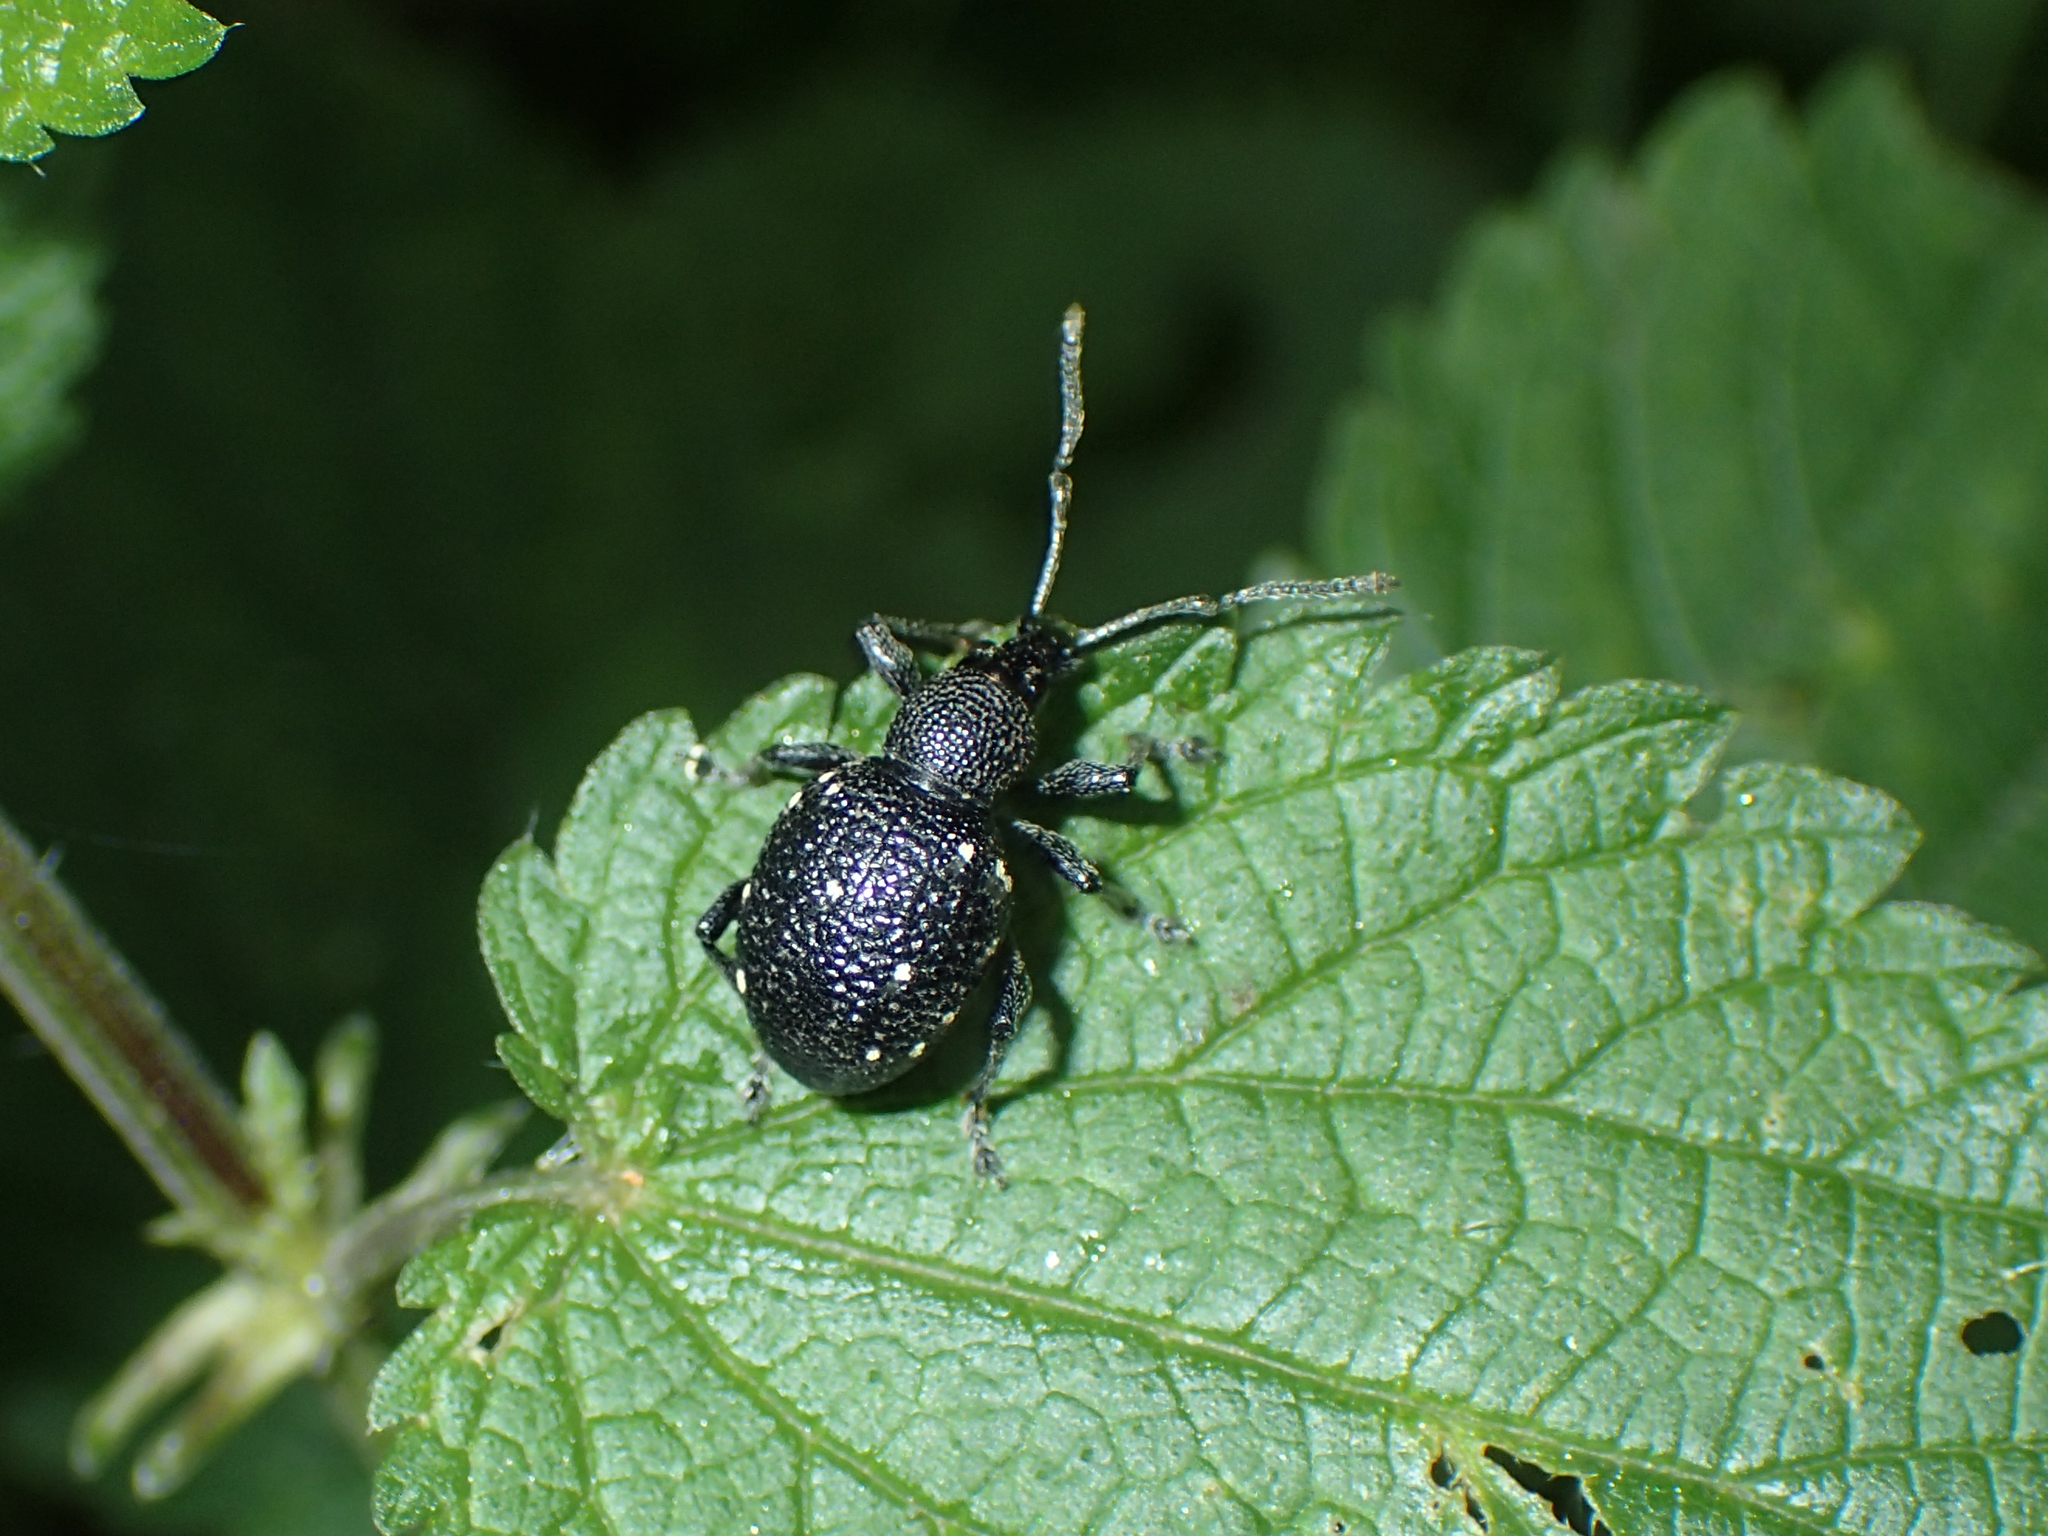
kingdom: Animalia
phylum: Arthropoda
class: Insecta
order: Coleoptera
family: Curculionidae
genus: Otiorhynchus
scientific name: Otiorhynchus gemmatus
